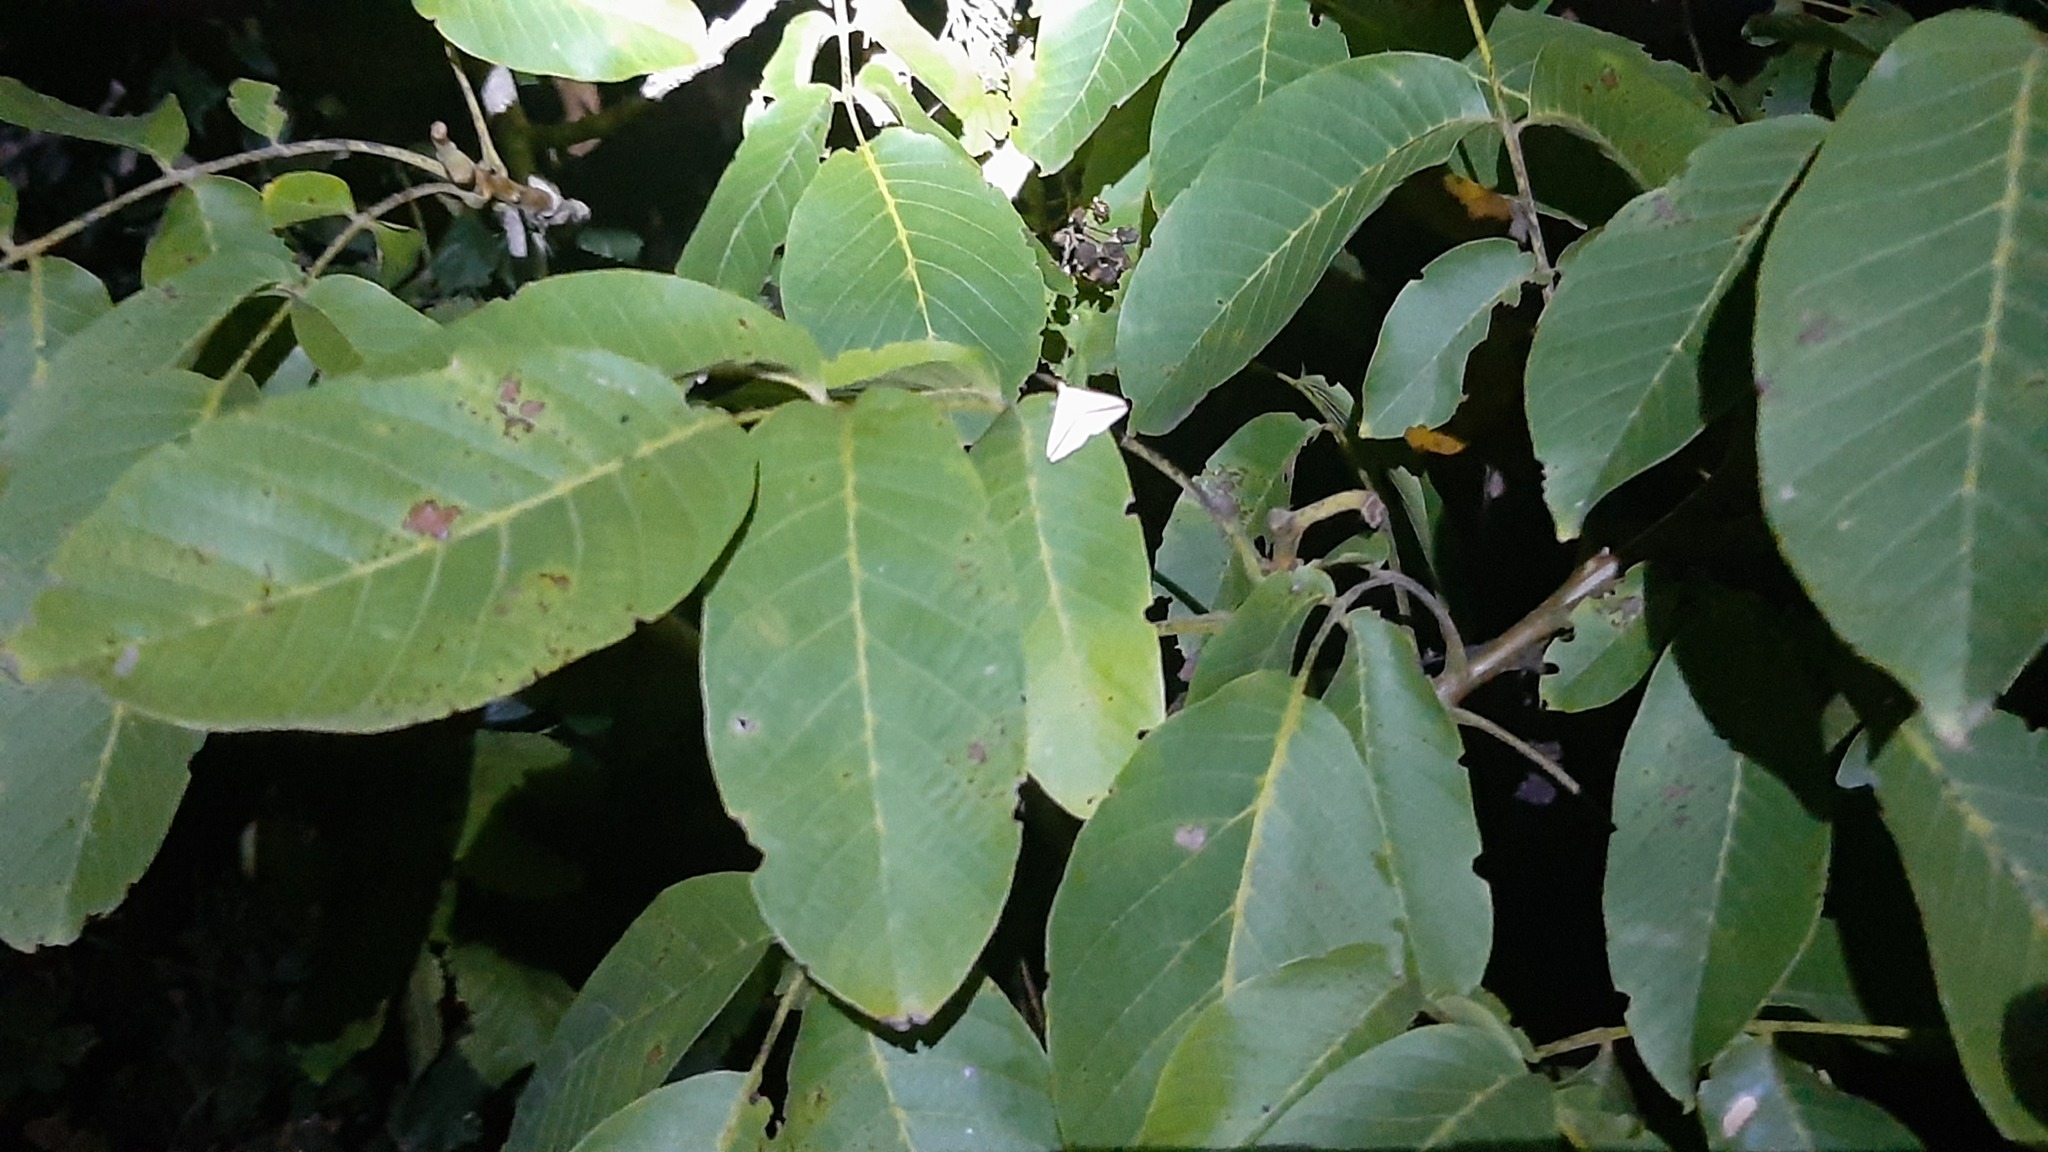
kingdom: Plantae
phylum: Tracheophyta
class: Magnoliopsida
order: Fagales
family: Juglandaceae
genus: Juglans
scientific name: Juglans regia
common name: Walnut
